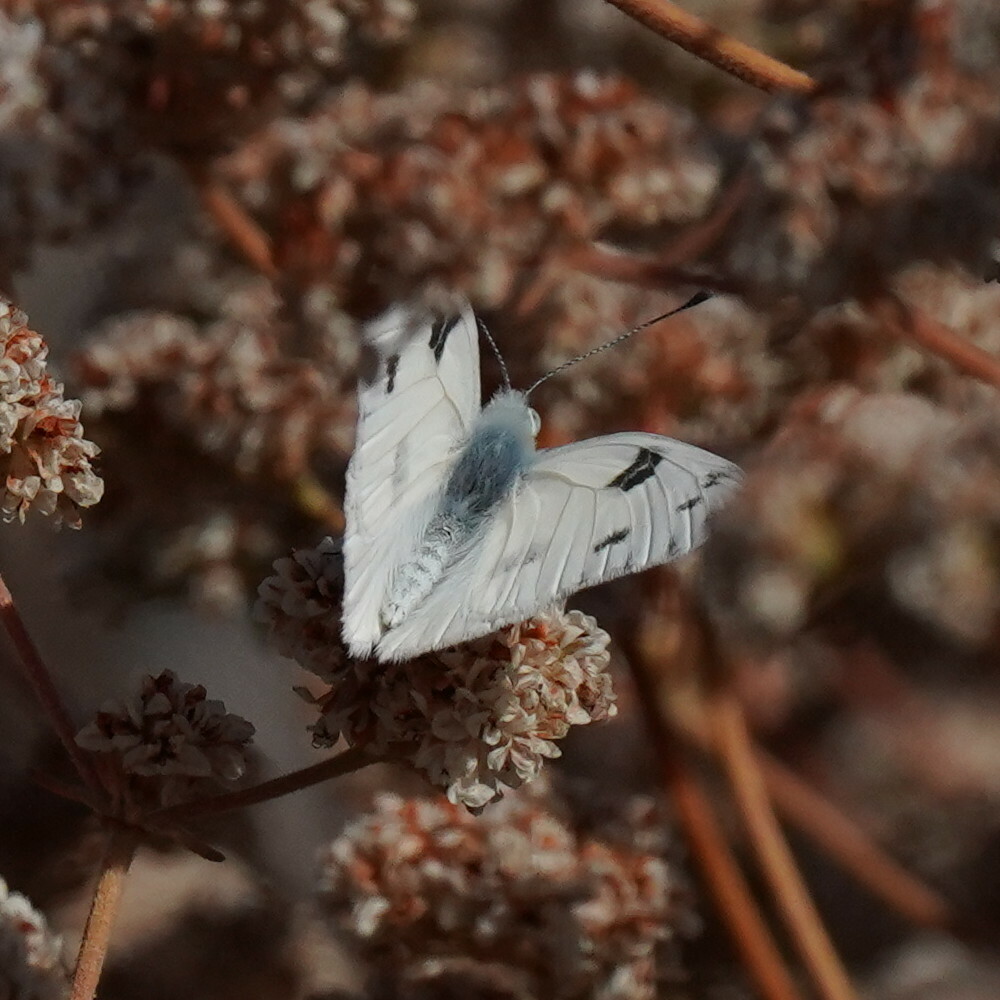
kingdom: Animalia
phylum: Arthropoda
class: Insecta
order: Lepidoptera
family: Pieridae
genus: Pontia
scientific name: Pontia protodice
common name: Checkered white
